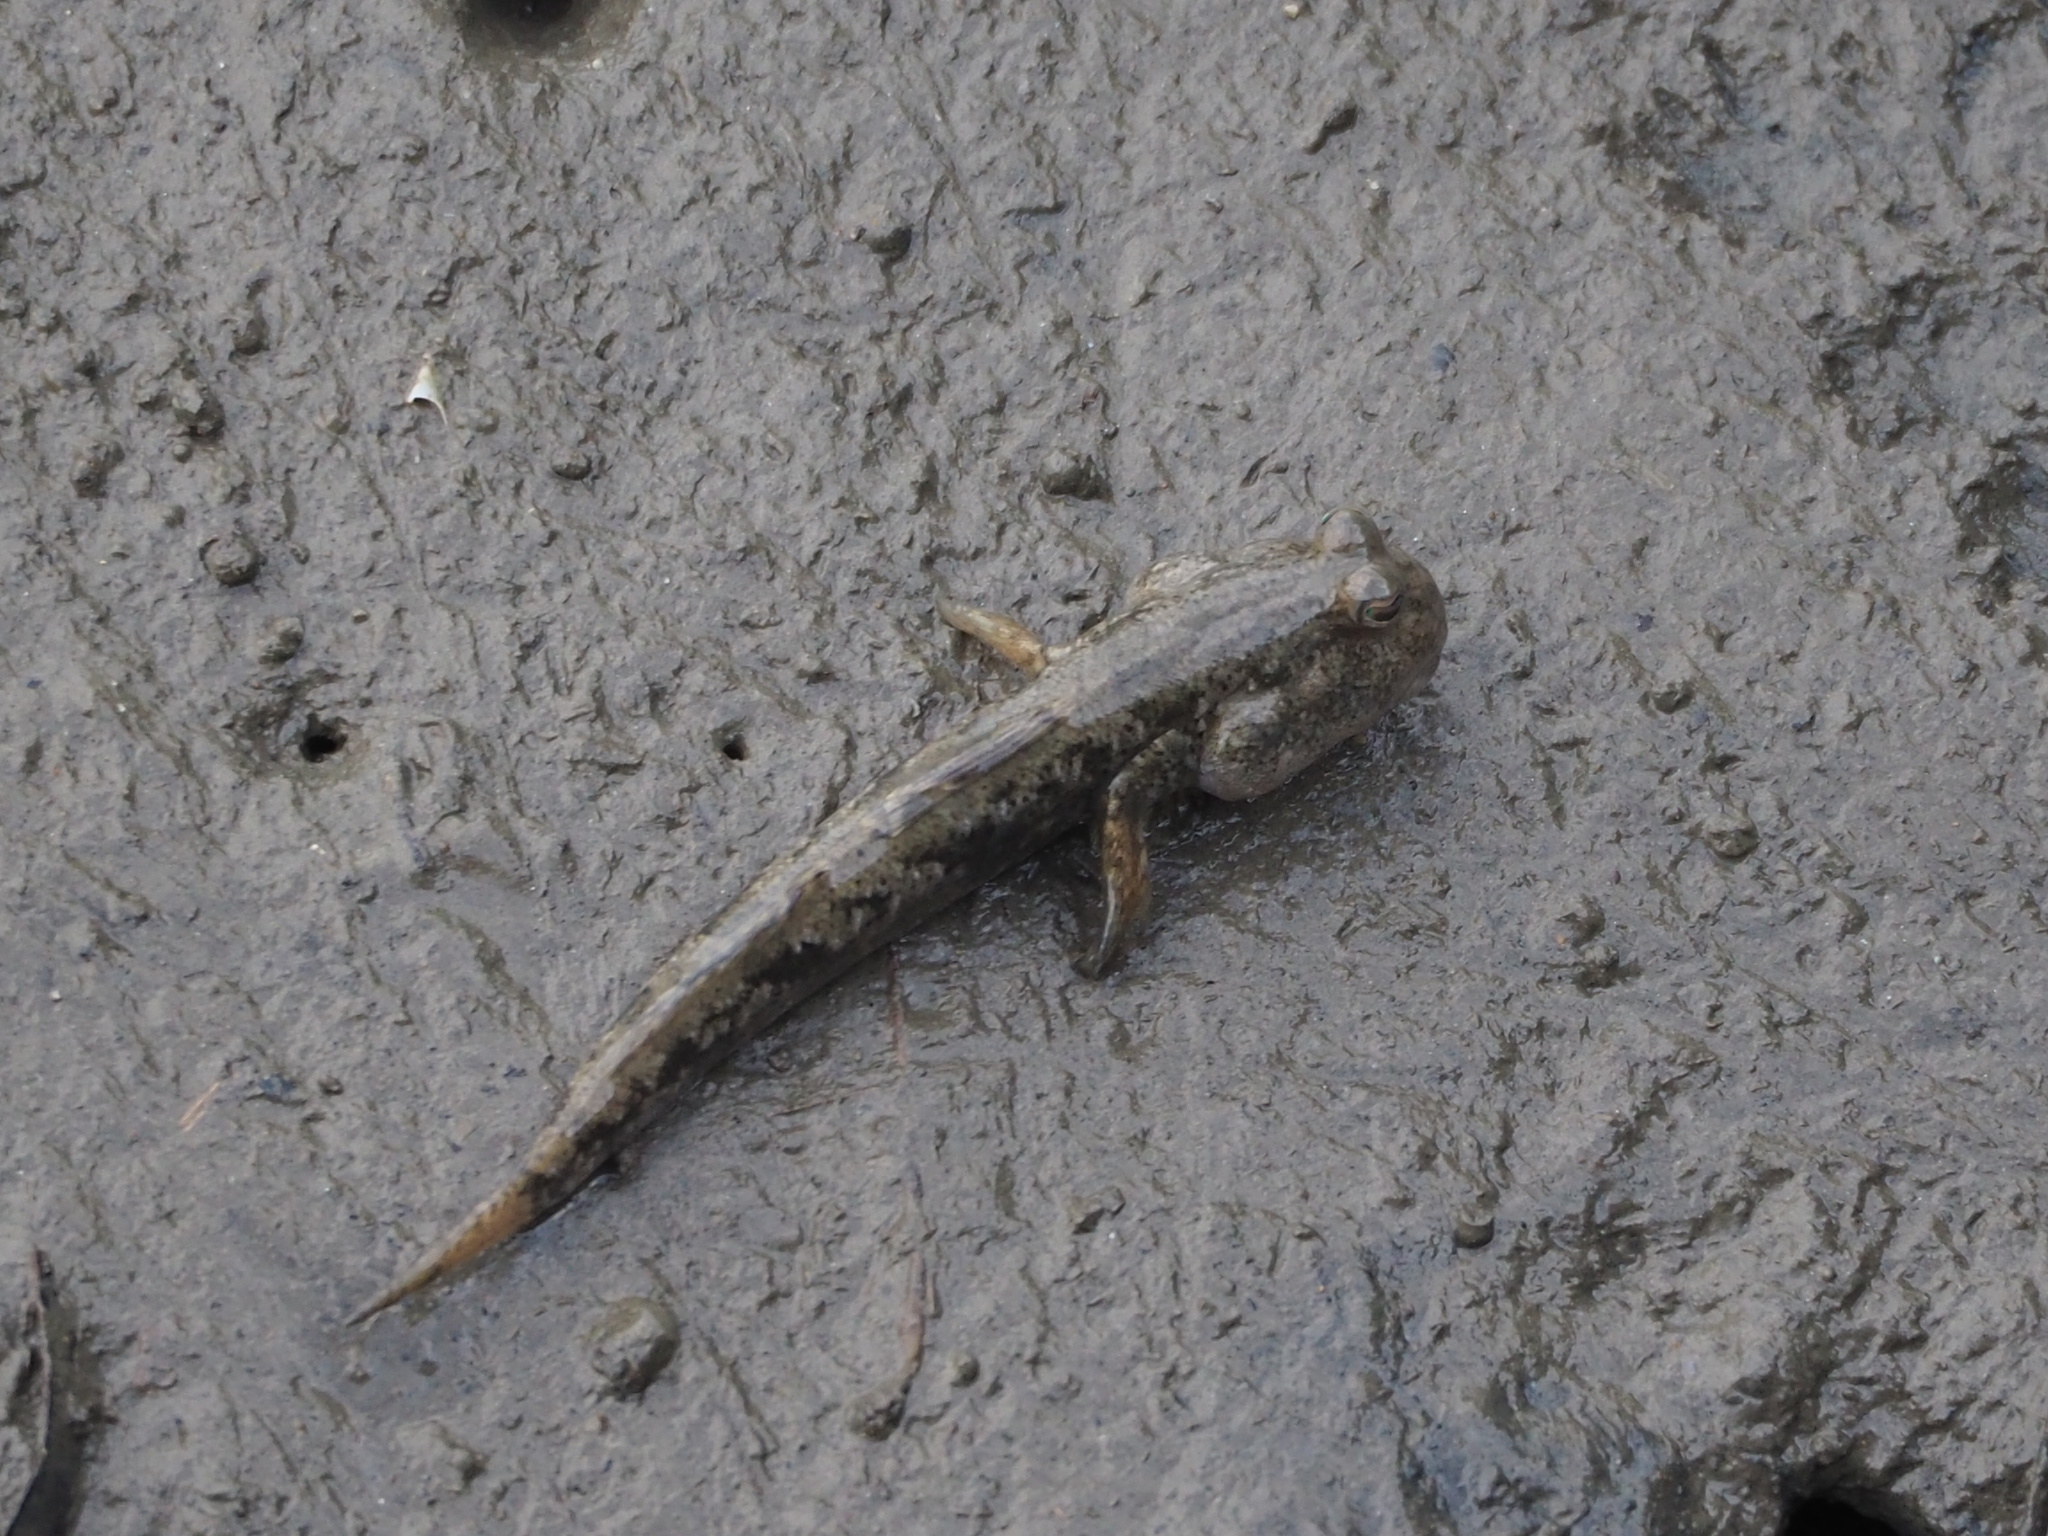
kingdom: Animalia
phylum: Chordata
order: Perciformes
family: Gobiidae
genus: Periophthalmus
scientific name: Periophthalmus modestus
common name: Black goby
